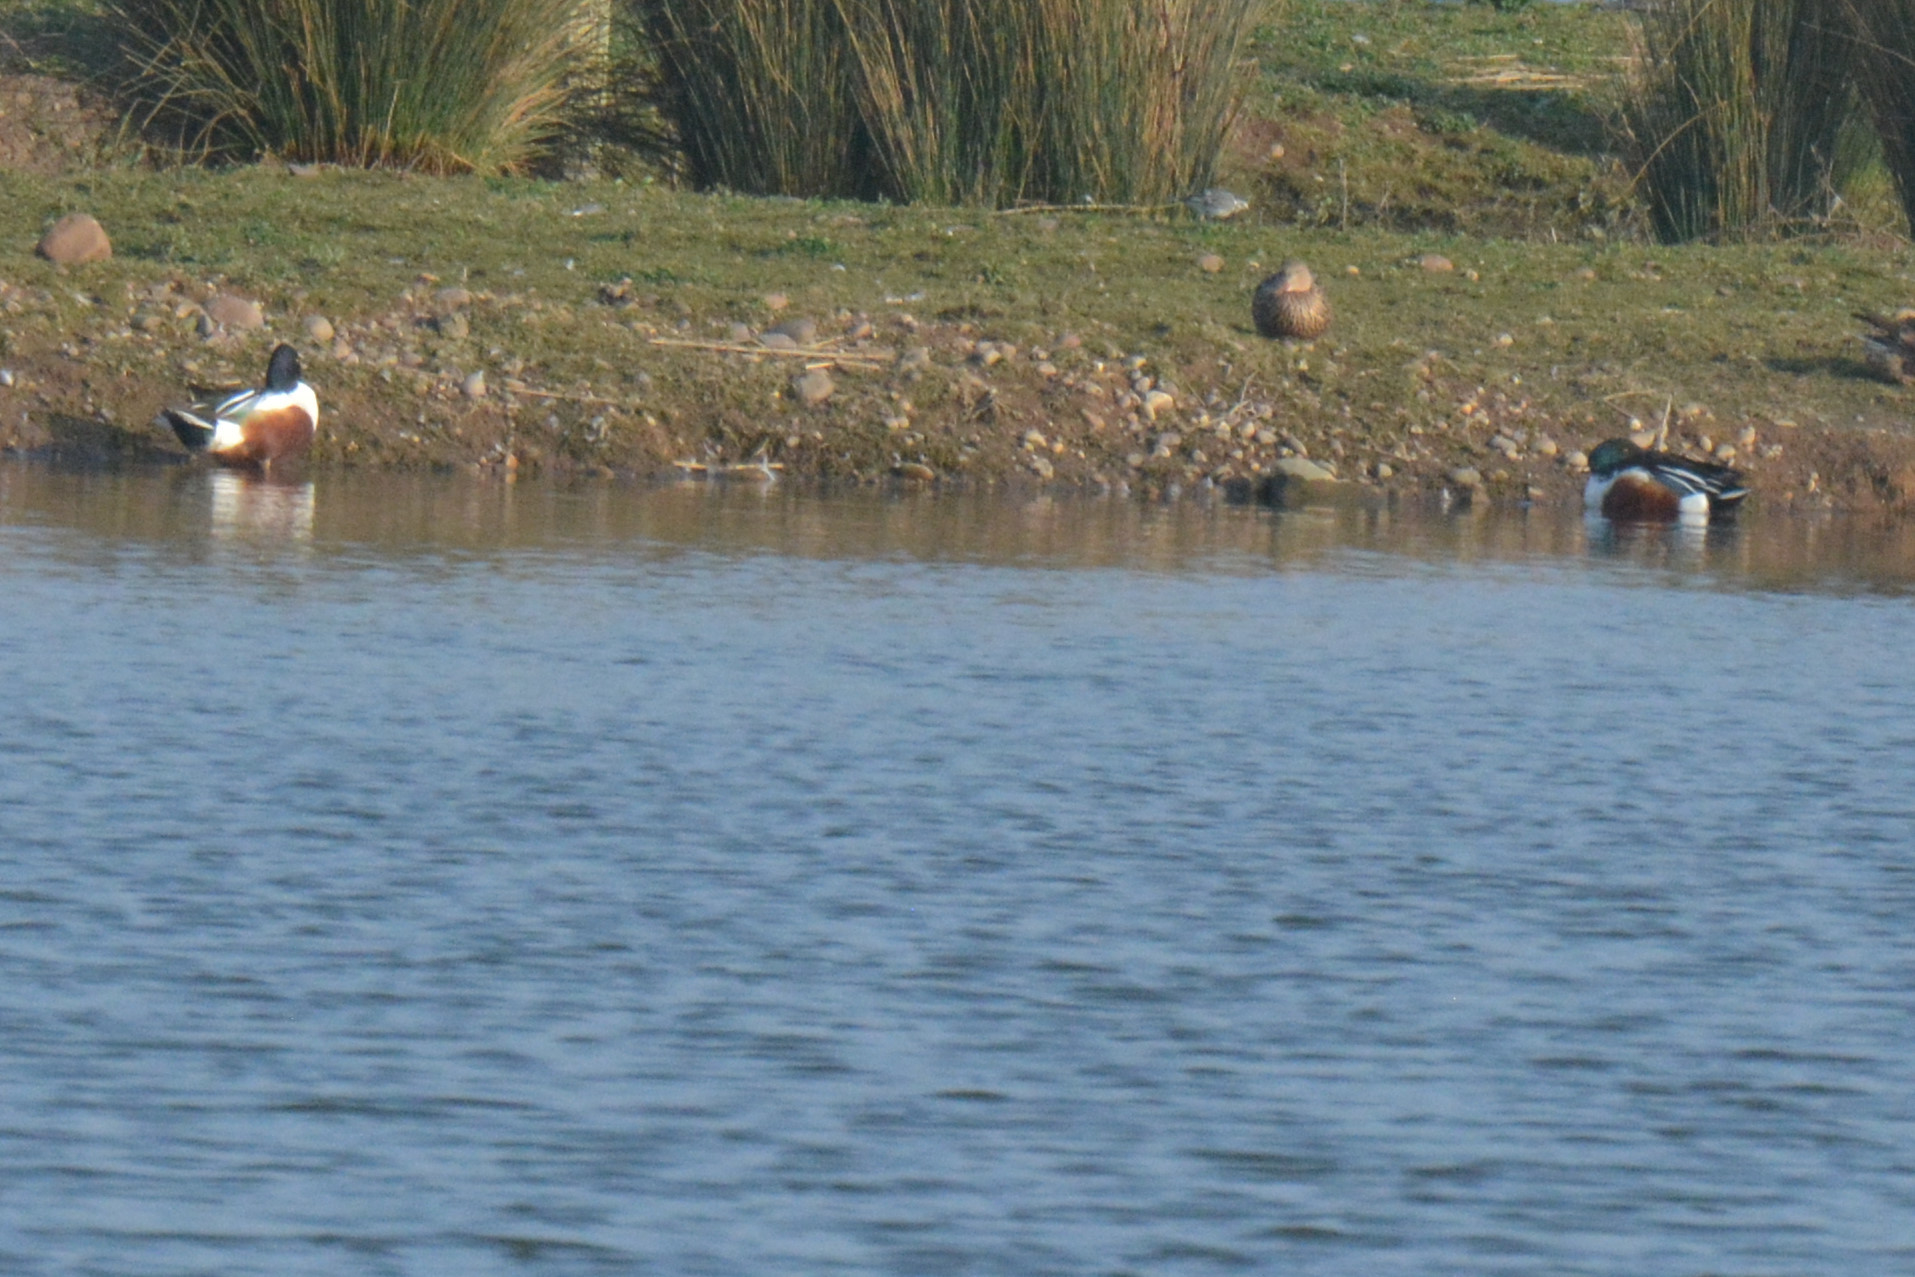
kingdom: Animalia
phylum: Chordata
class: Aves
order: Anseriformes
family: Anatidae
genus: Spatula
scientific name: Spatula clypeata
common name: Northern shoveler
